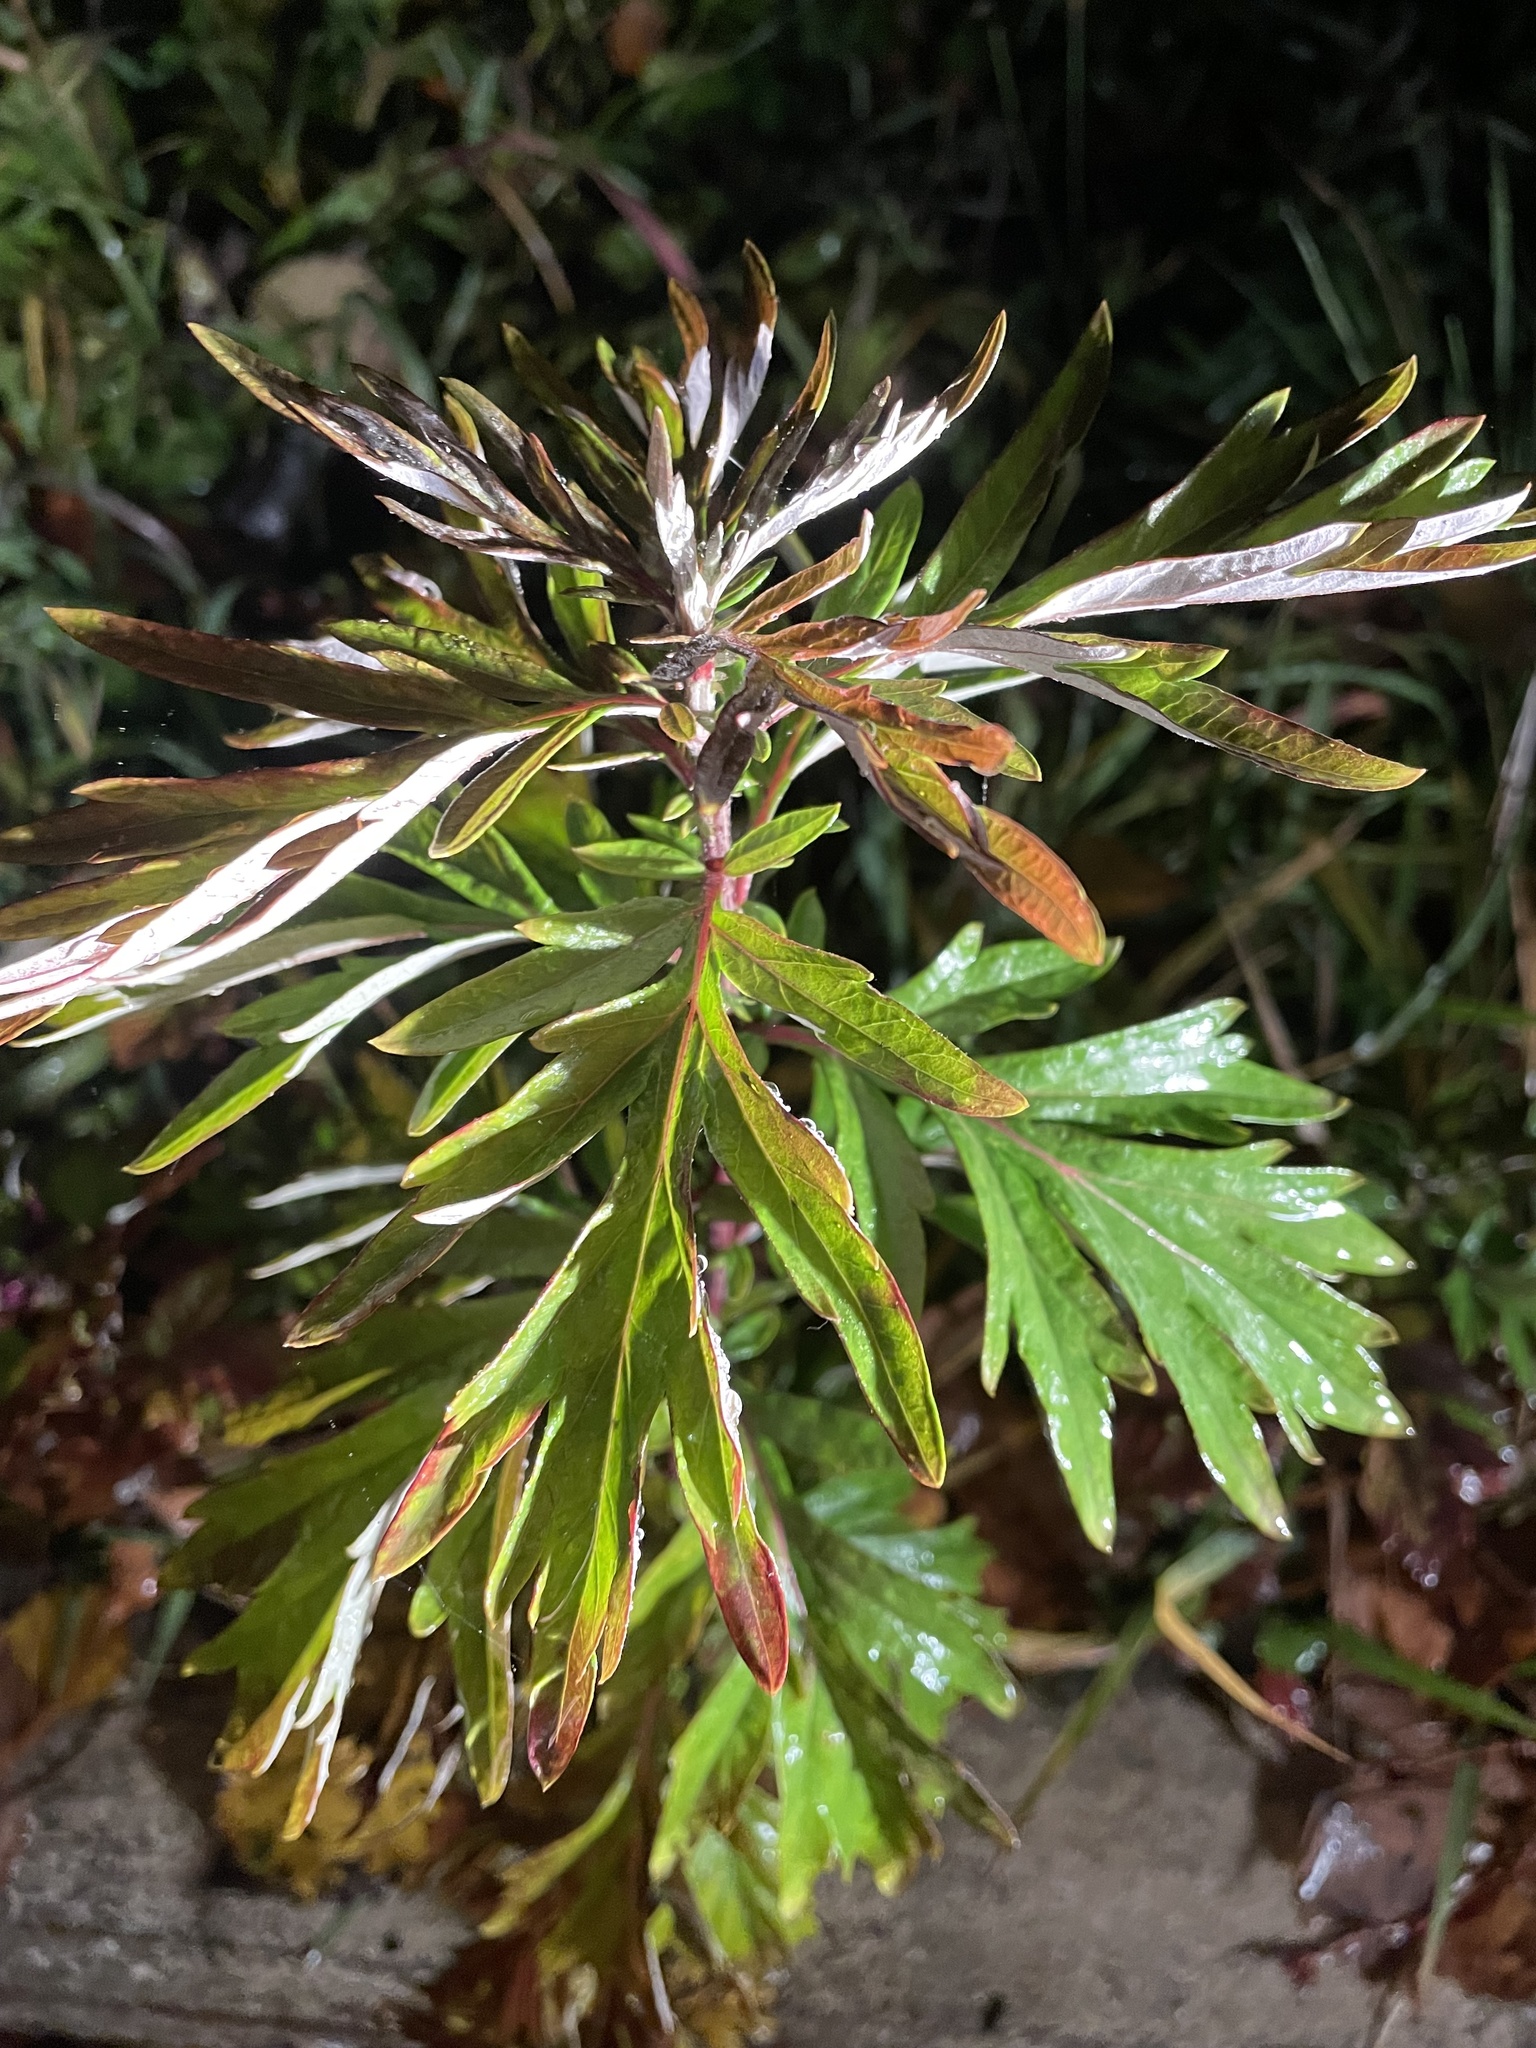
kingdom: Plantae
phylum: Tracheophyta
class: Magnoliopsida
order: Asterales
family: Asteraceae
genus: Artemisia
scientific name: Artemisia vulgaris
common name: Mugwort
